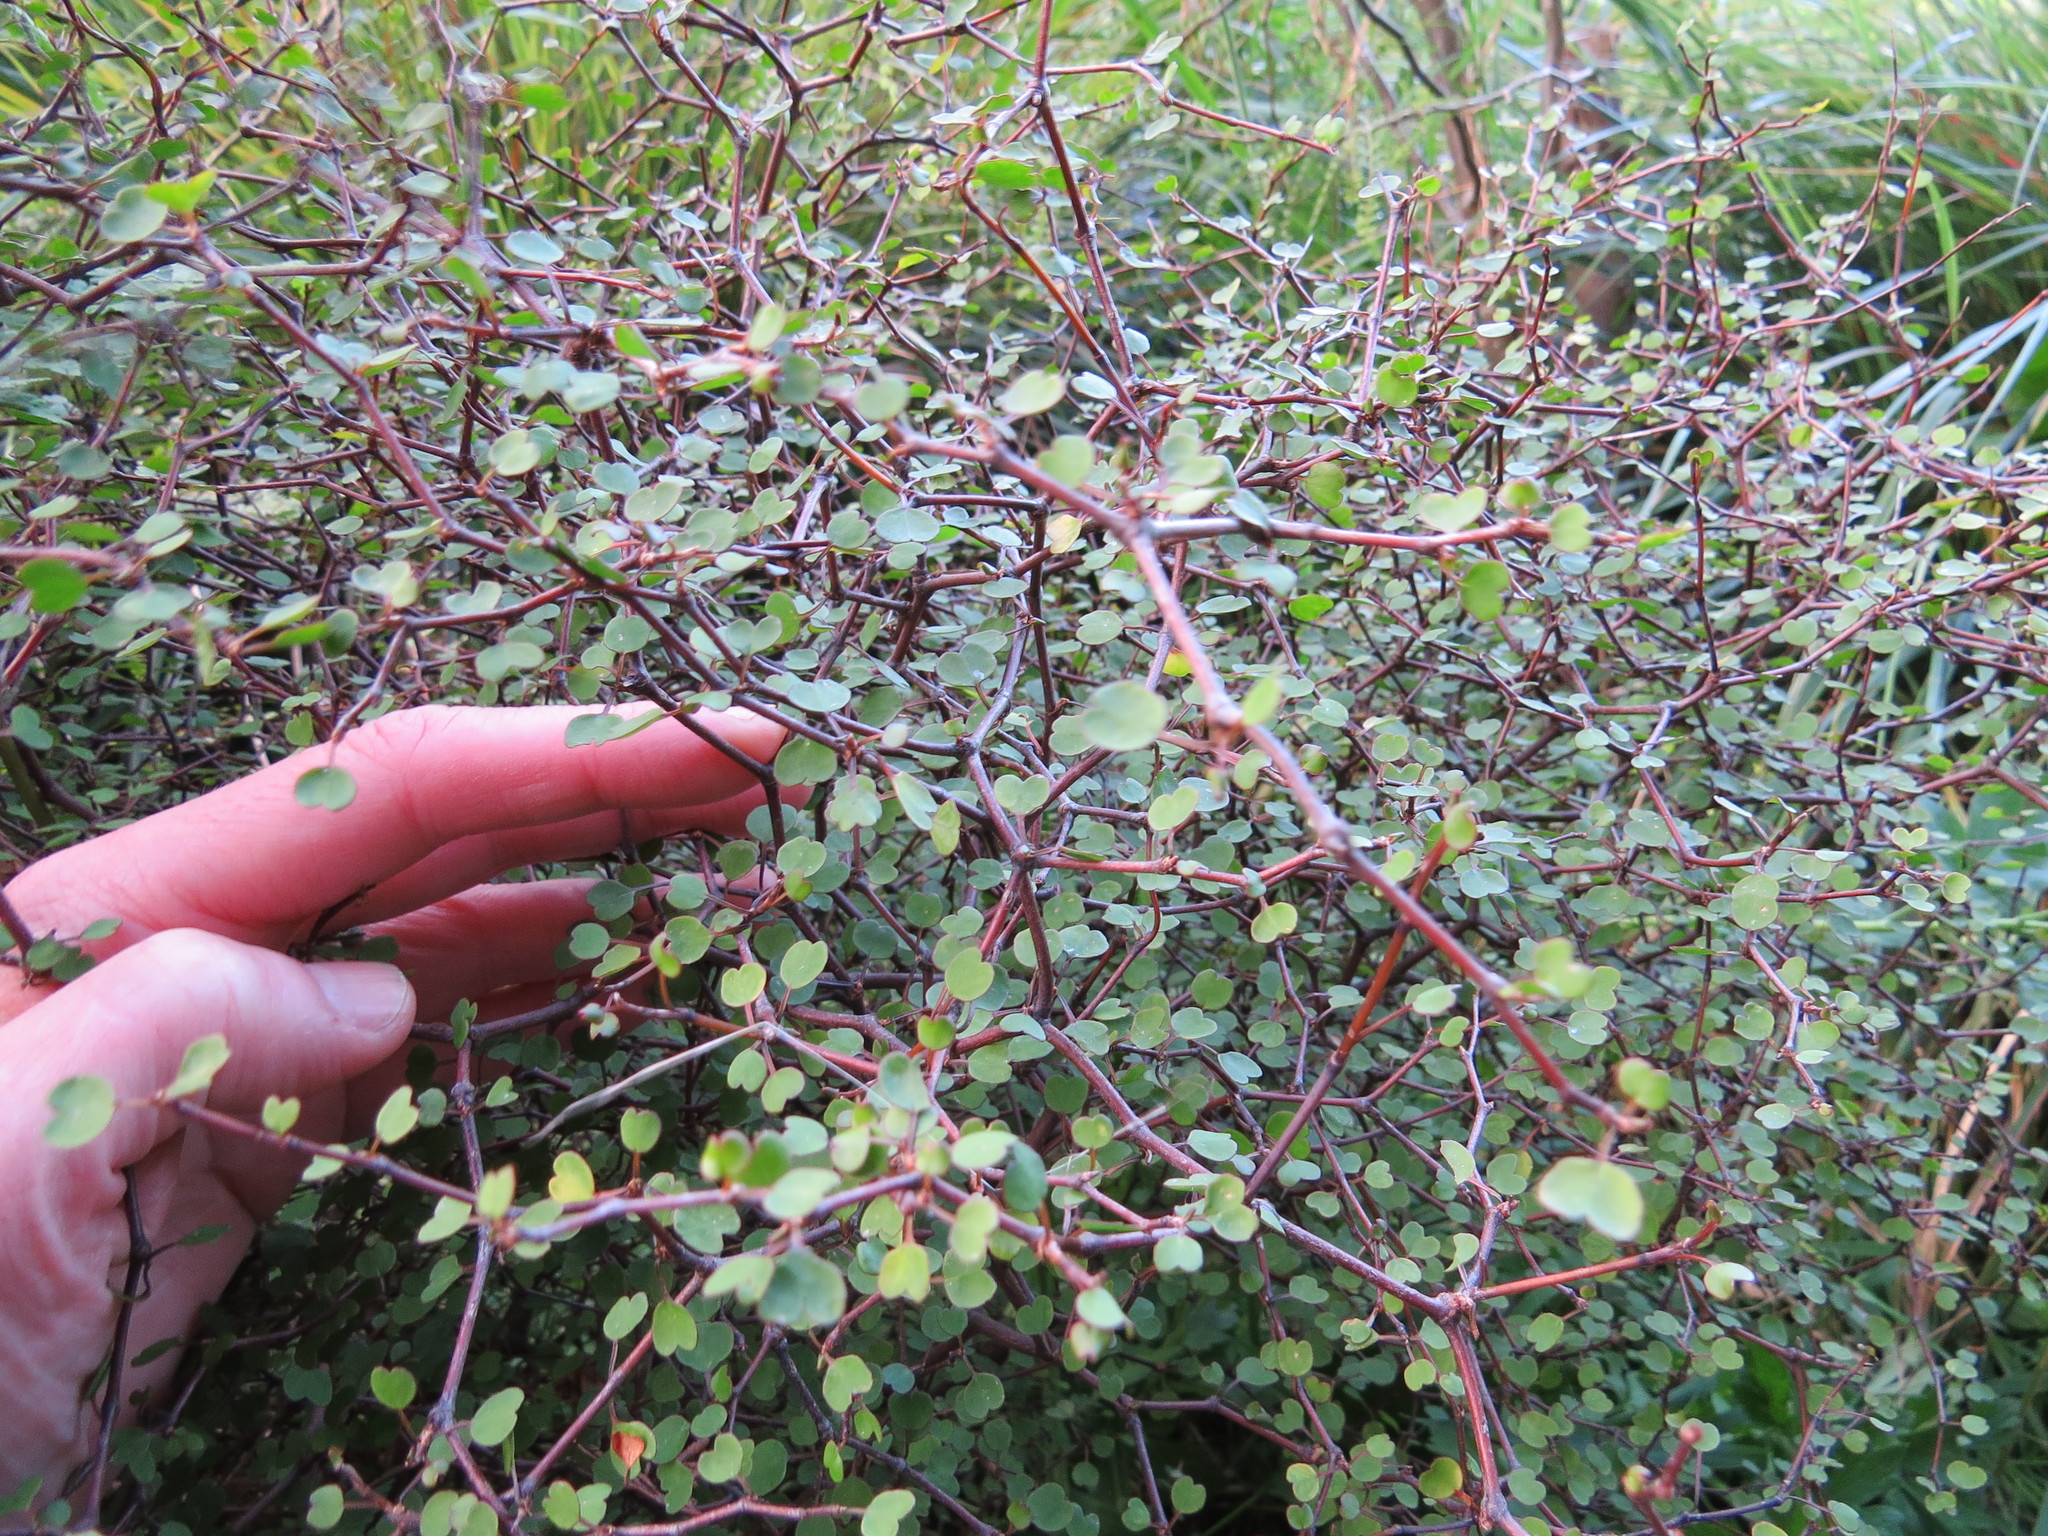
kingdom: Plantae
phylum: Tracheophyta
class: Magnoliopsida
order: Caryophyllales
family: Polygonaceae
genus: Muehlenbeckia
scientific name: Muehlenbeckia astonii
